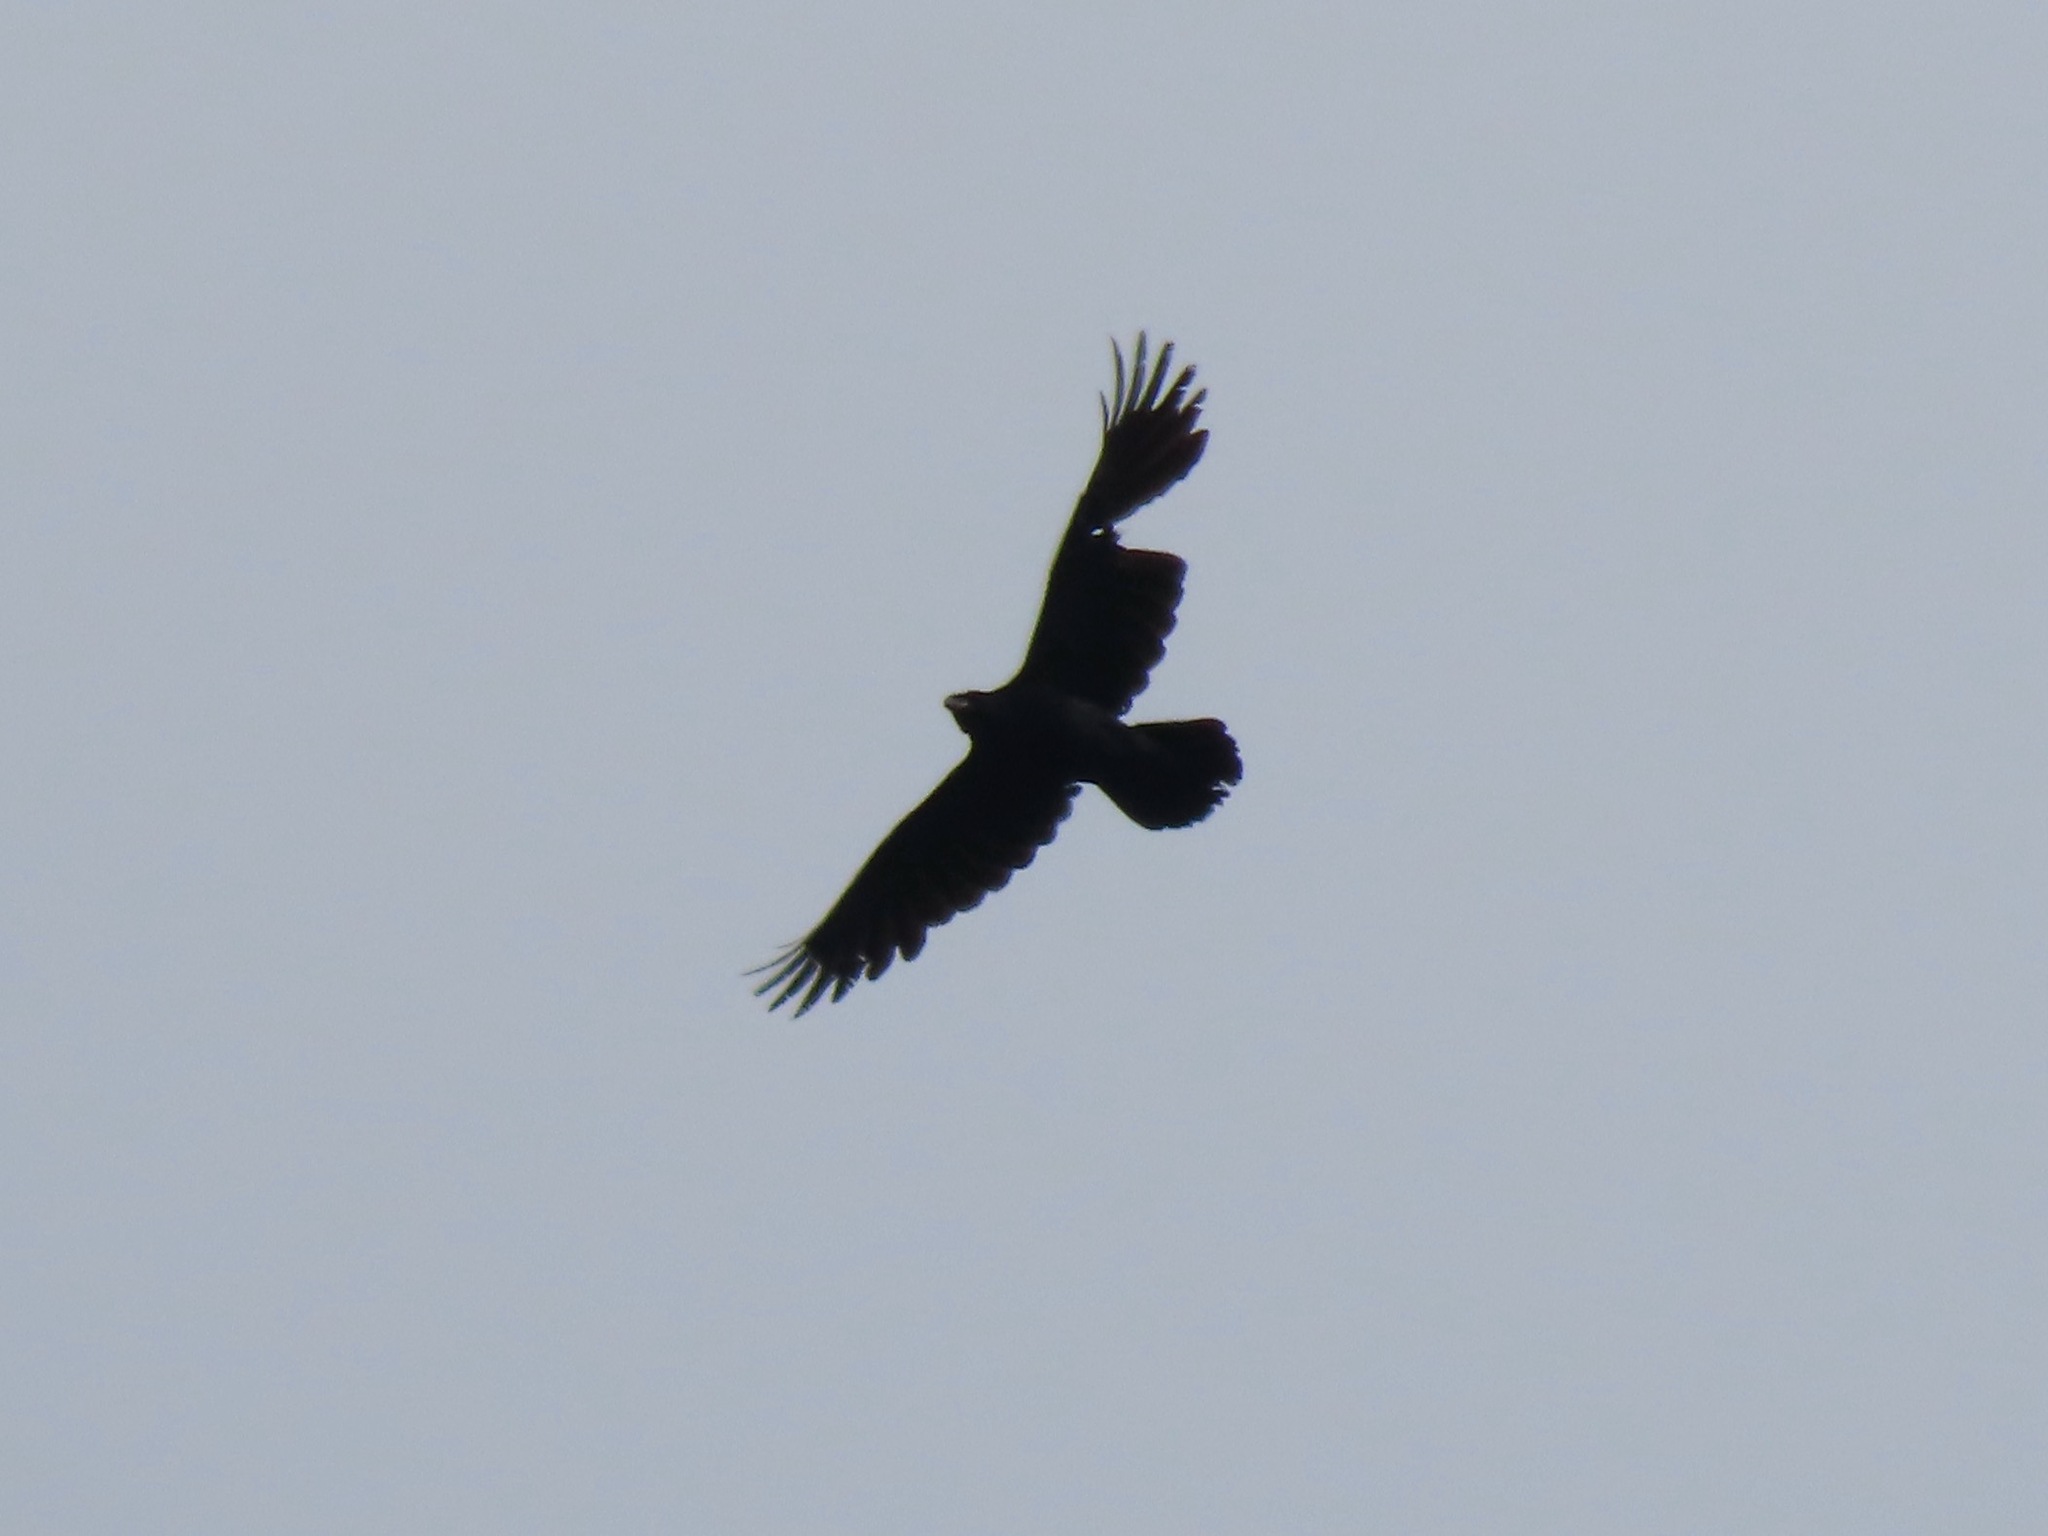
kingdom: Animalia
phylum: Chordata
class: Aves
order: Passeriformes
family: Corvidae
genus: Corvus
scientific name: Corvus corax
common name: Common raven
